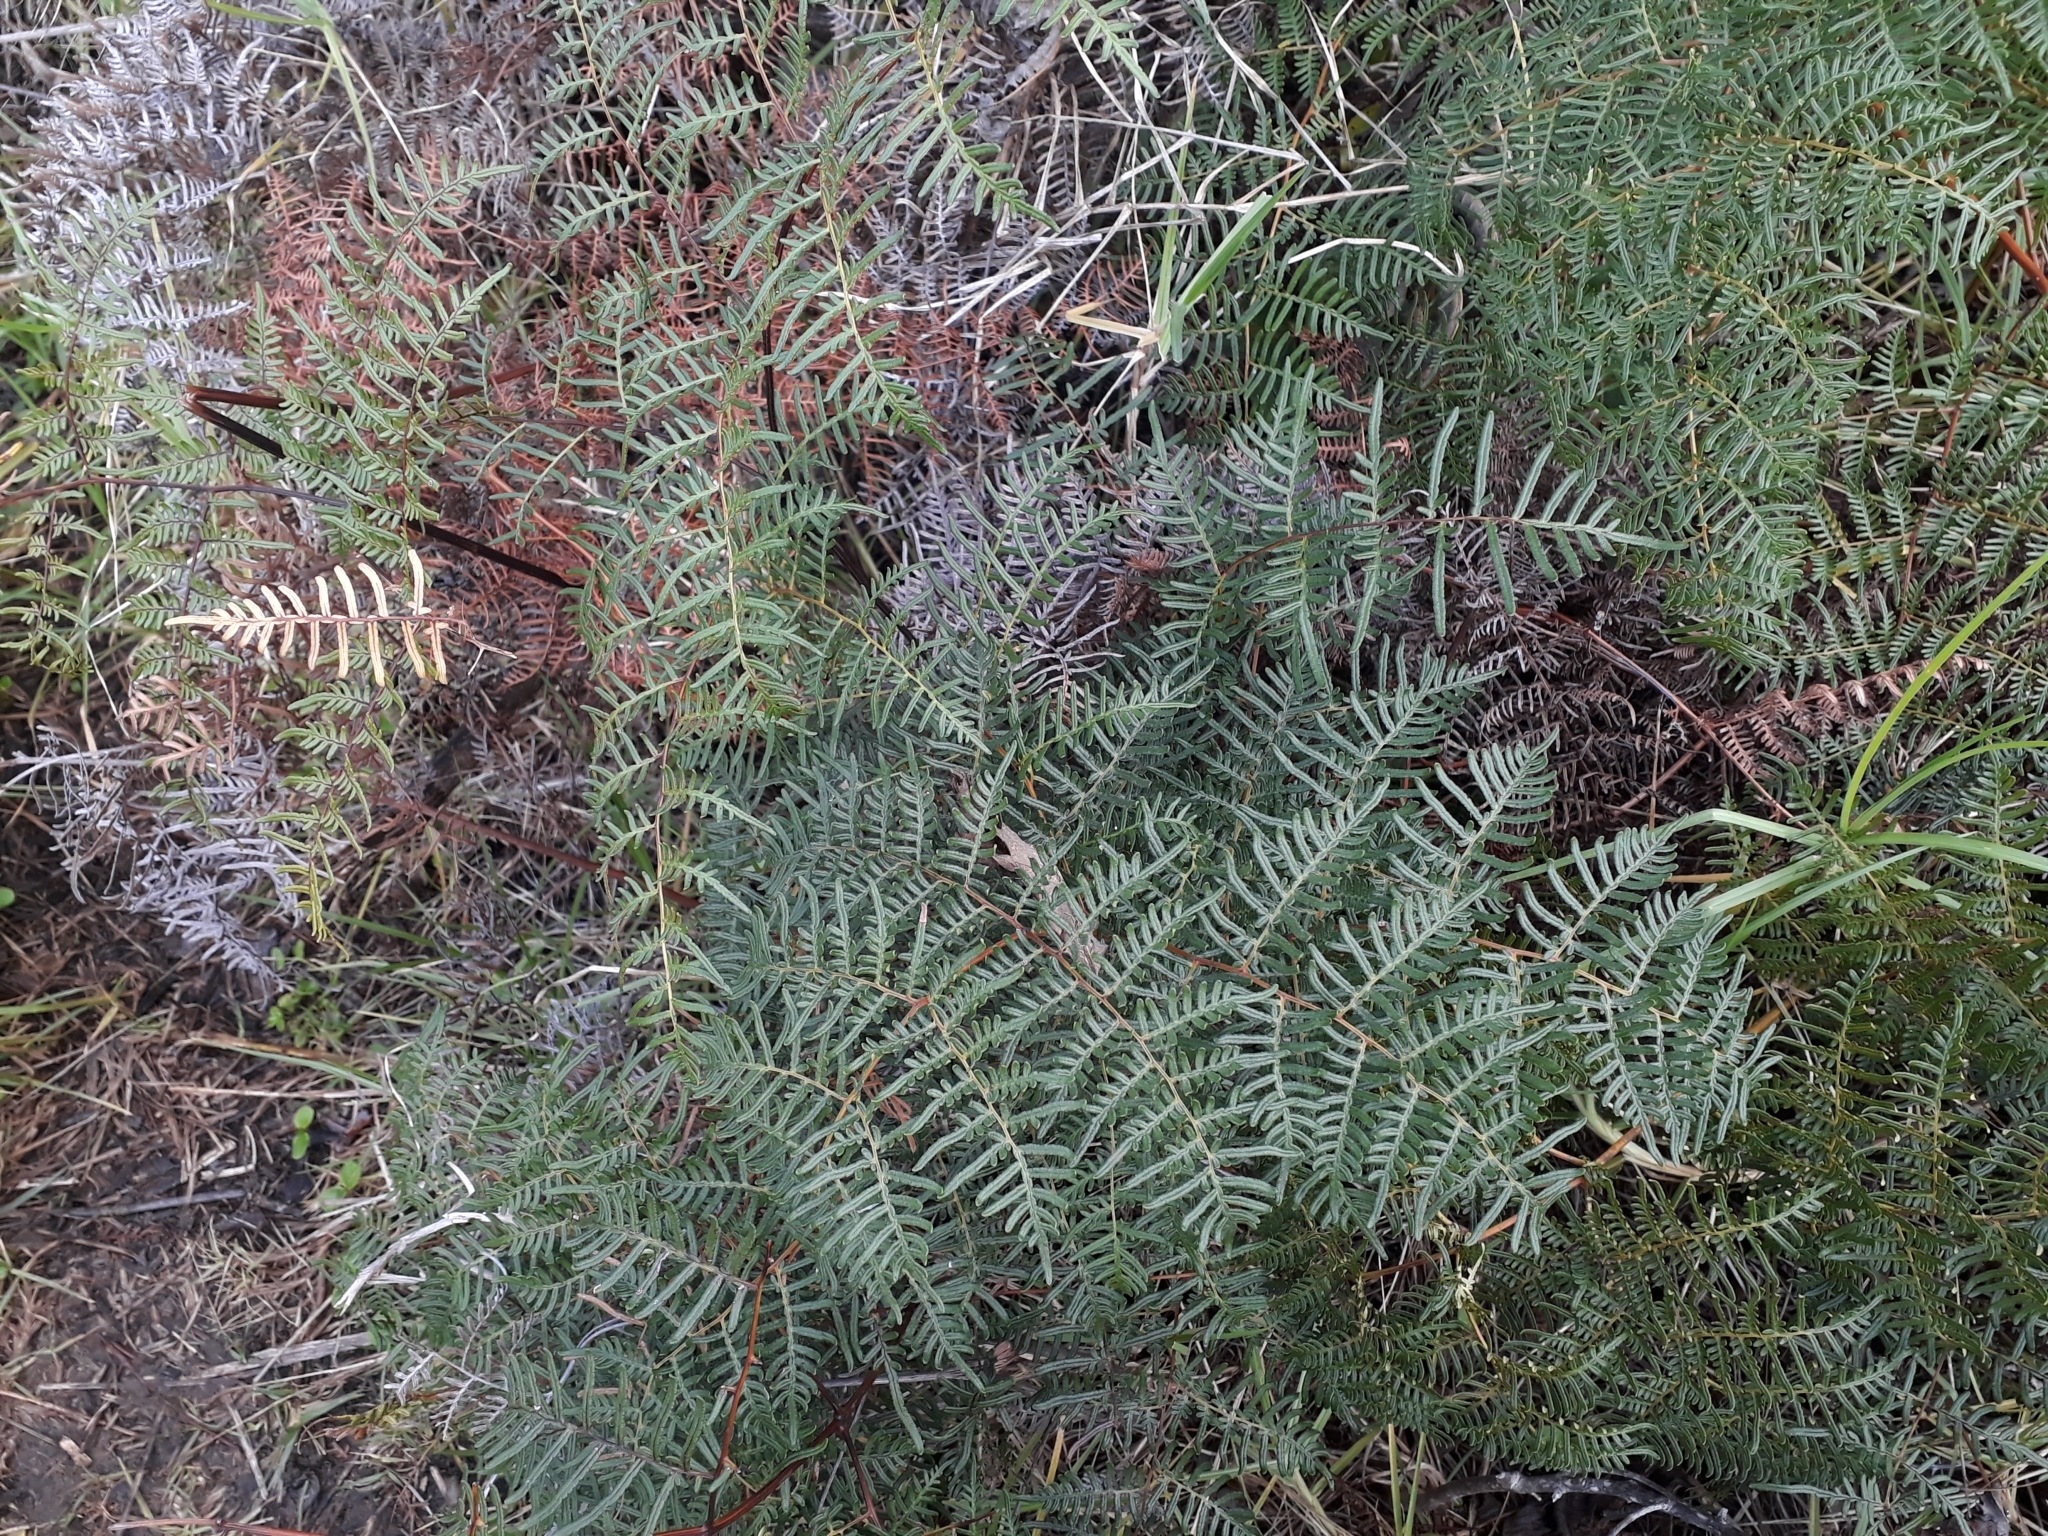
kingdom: Plantae
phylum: Tracheophyta
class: Polypodiopsida
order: Polypodiales
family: Dennstaedtiaceae
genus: Pteridium
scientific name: Pteridium esculentum
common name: Bracken fern
